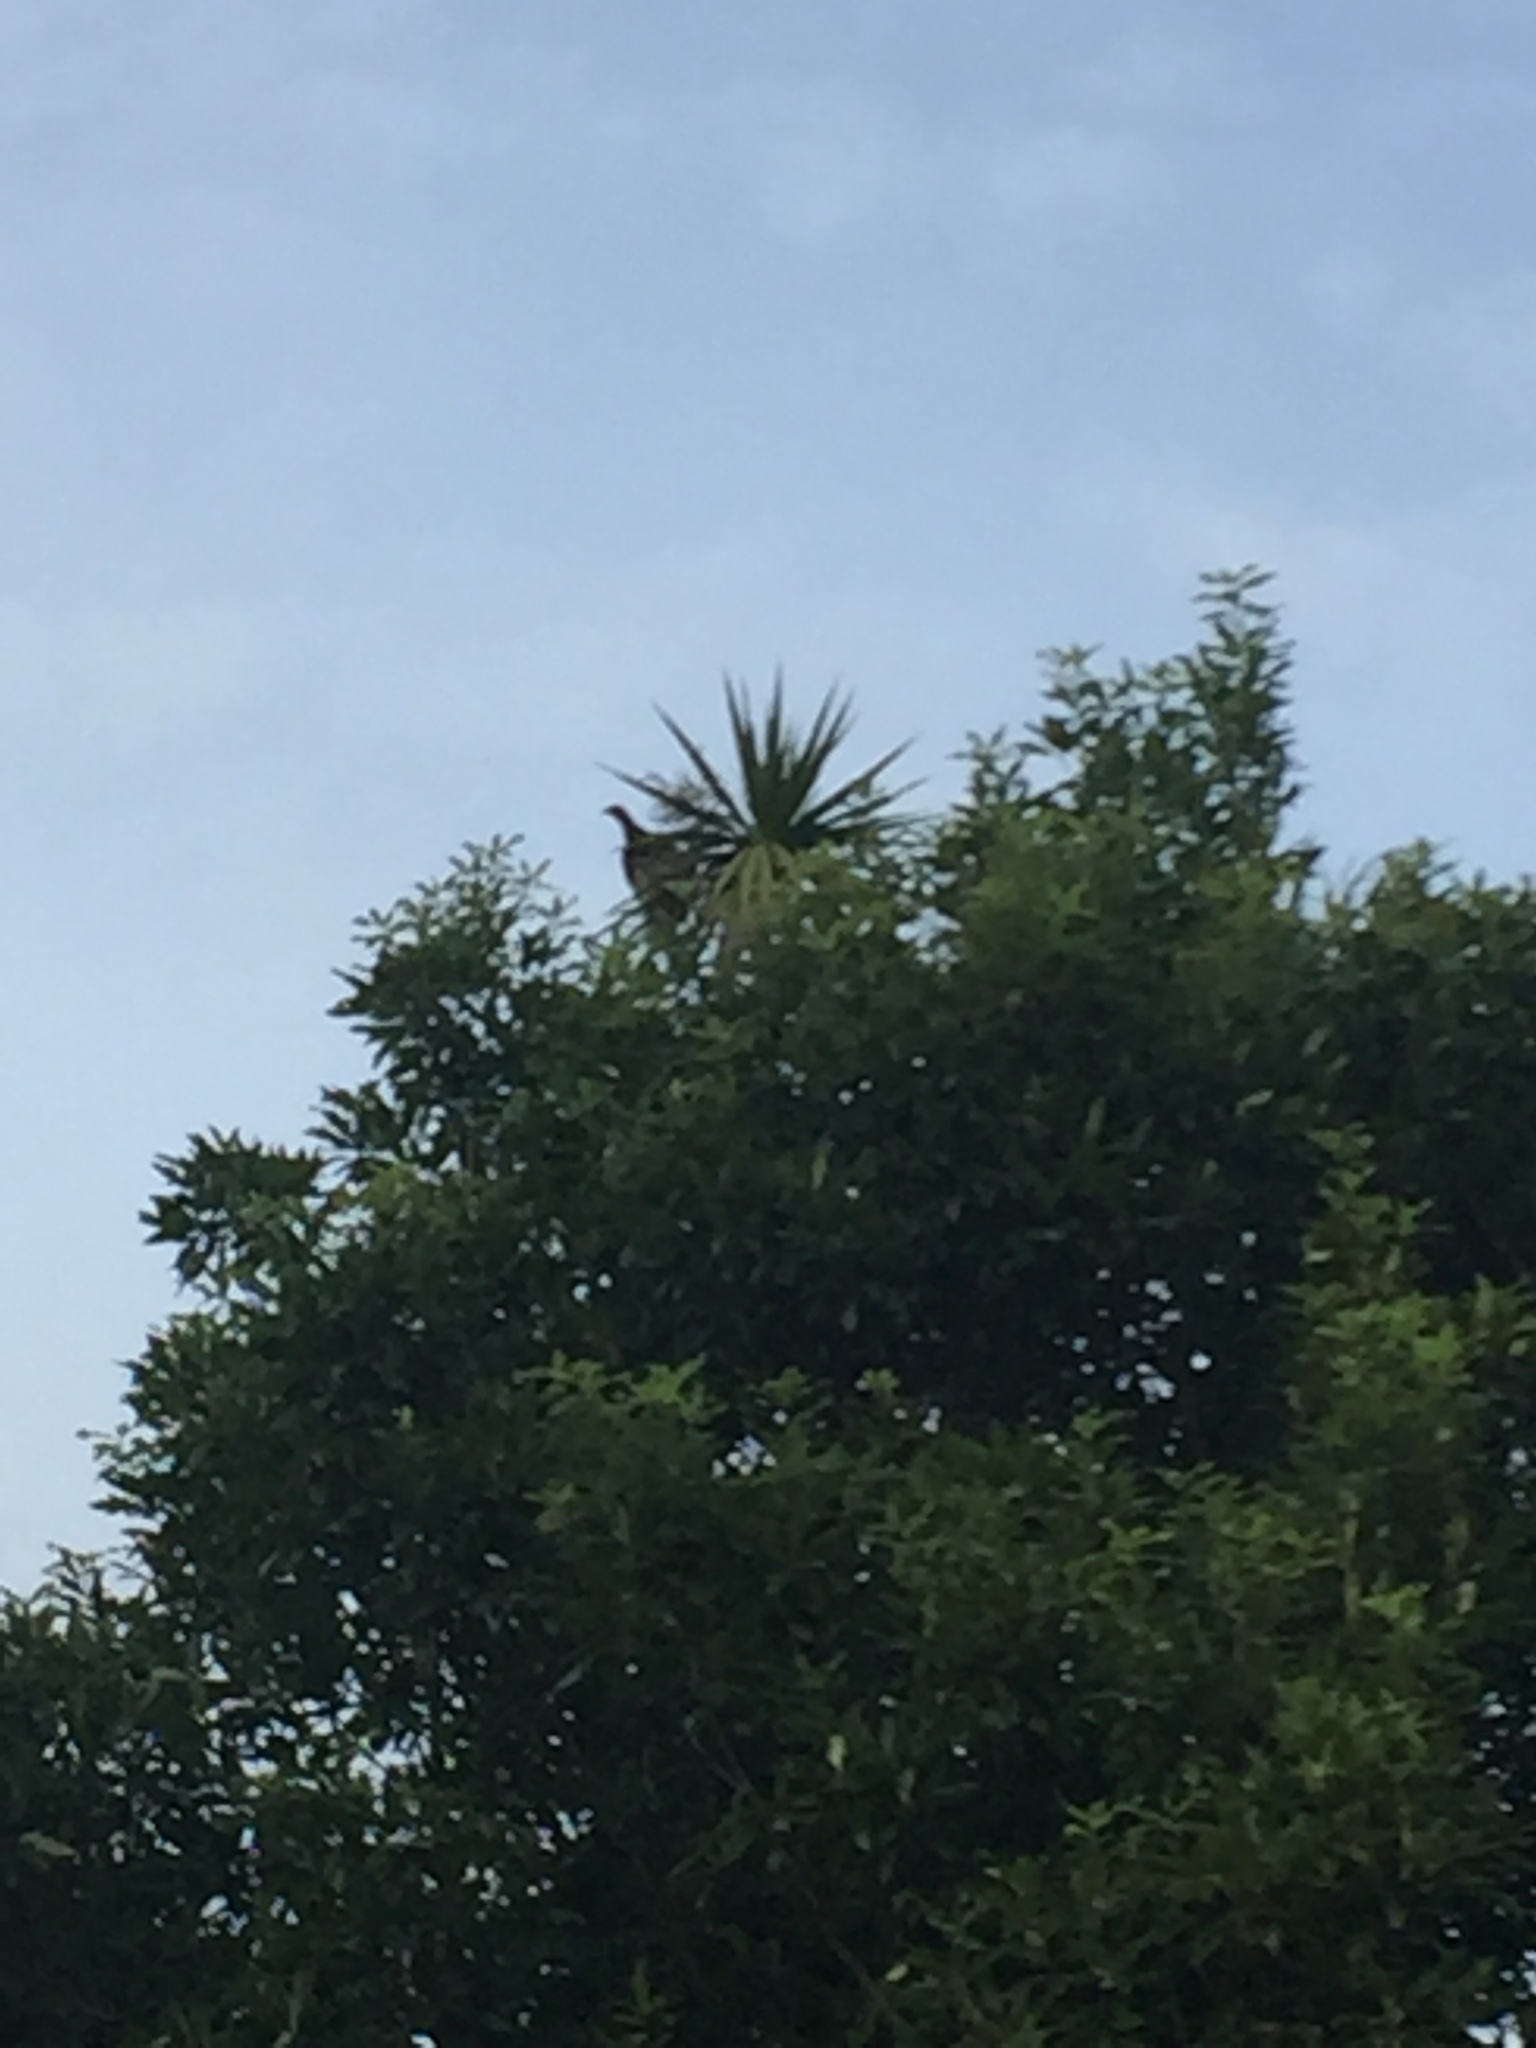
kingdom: Animalia
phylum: Chordata
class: Aves
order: Columbiformes
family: Columbidae
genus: Hemiphaga
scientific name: Hemiphaga novaeseelandiae
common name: New zealand pigeon
